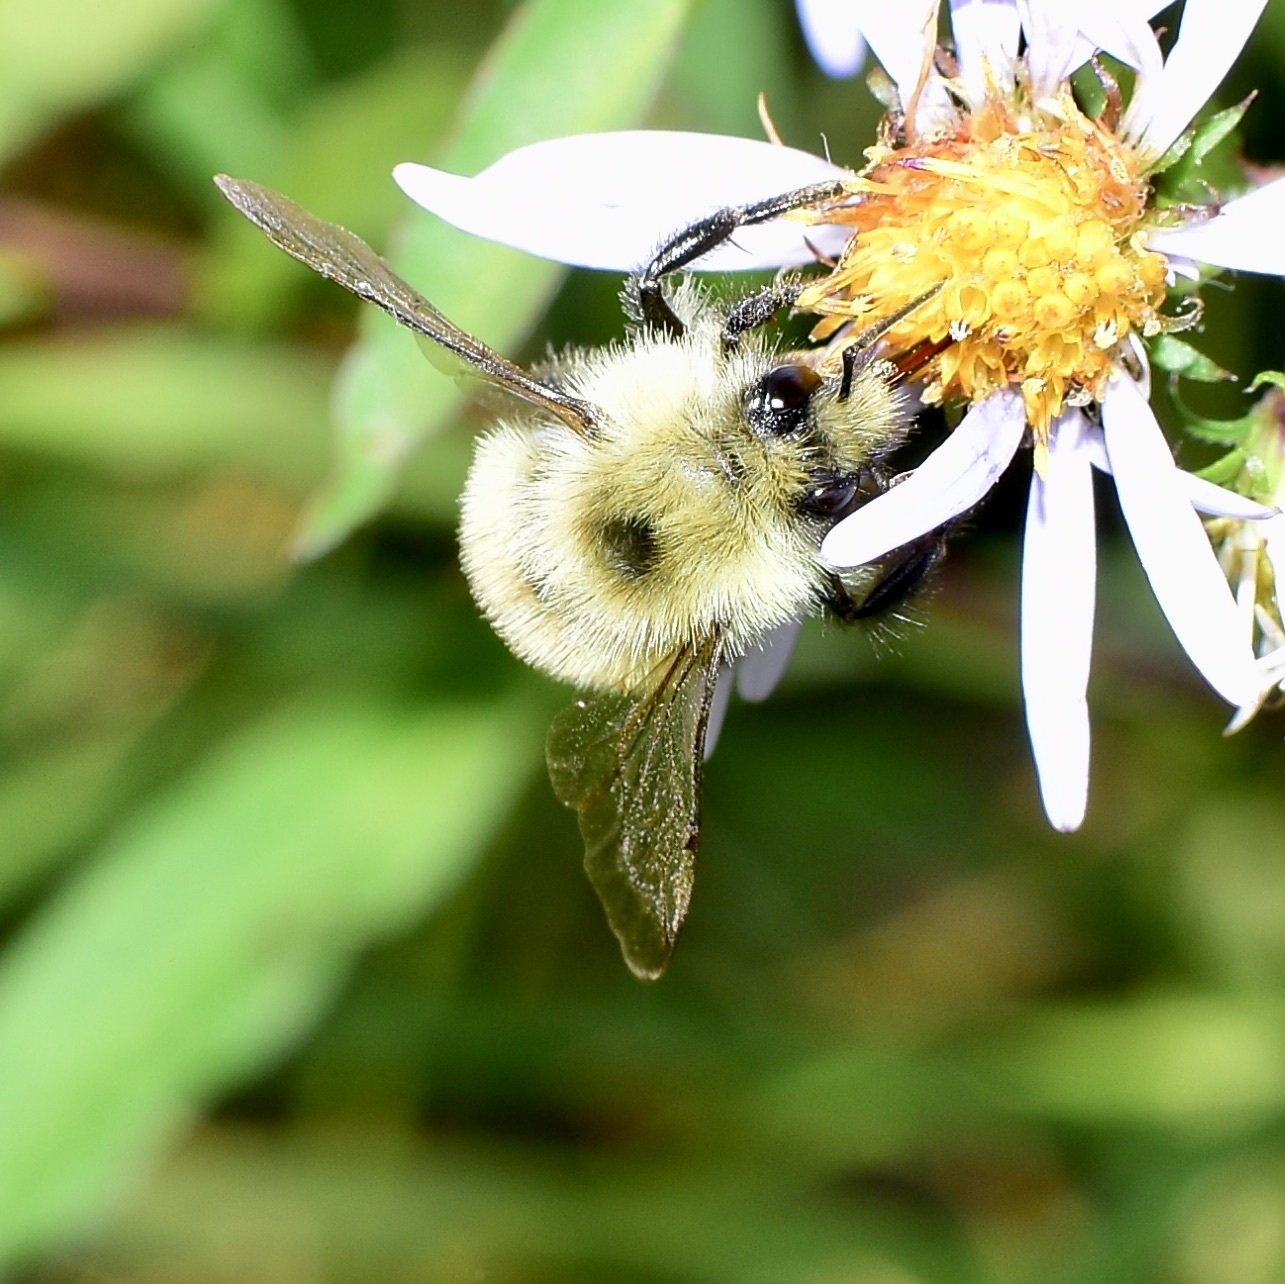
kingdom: Animalia
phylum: Arthropoda
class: Insecta
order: Hymenoptera
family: Apidae
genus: Pyrobombus
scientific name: Pyrobombus
